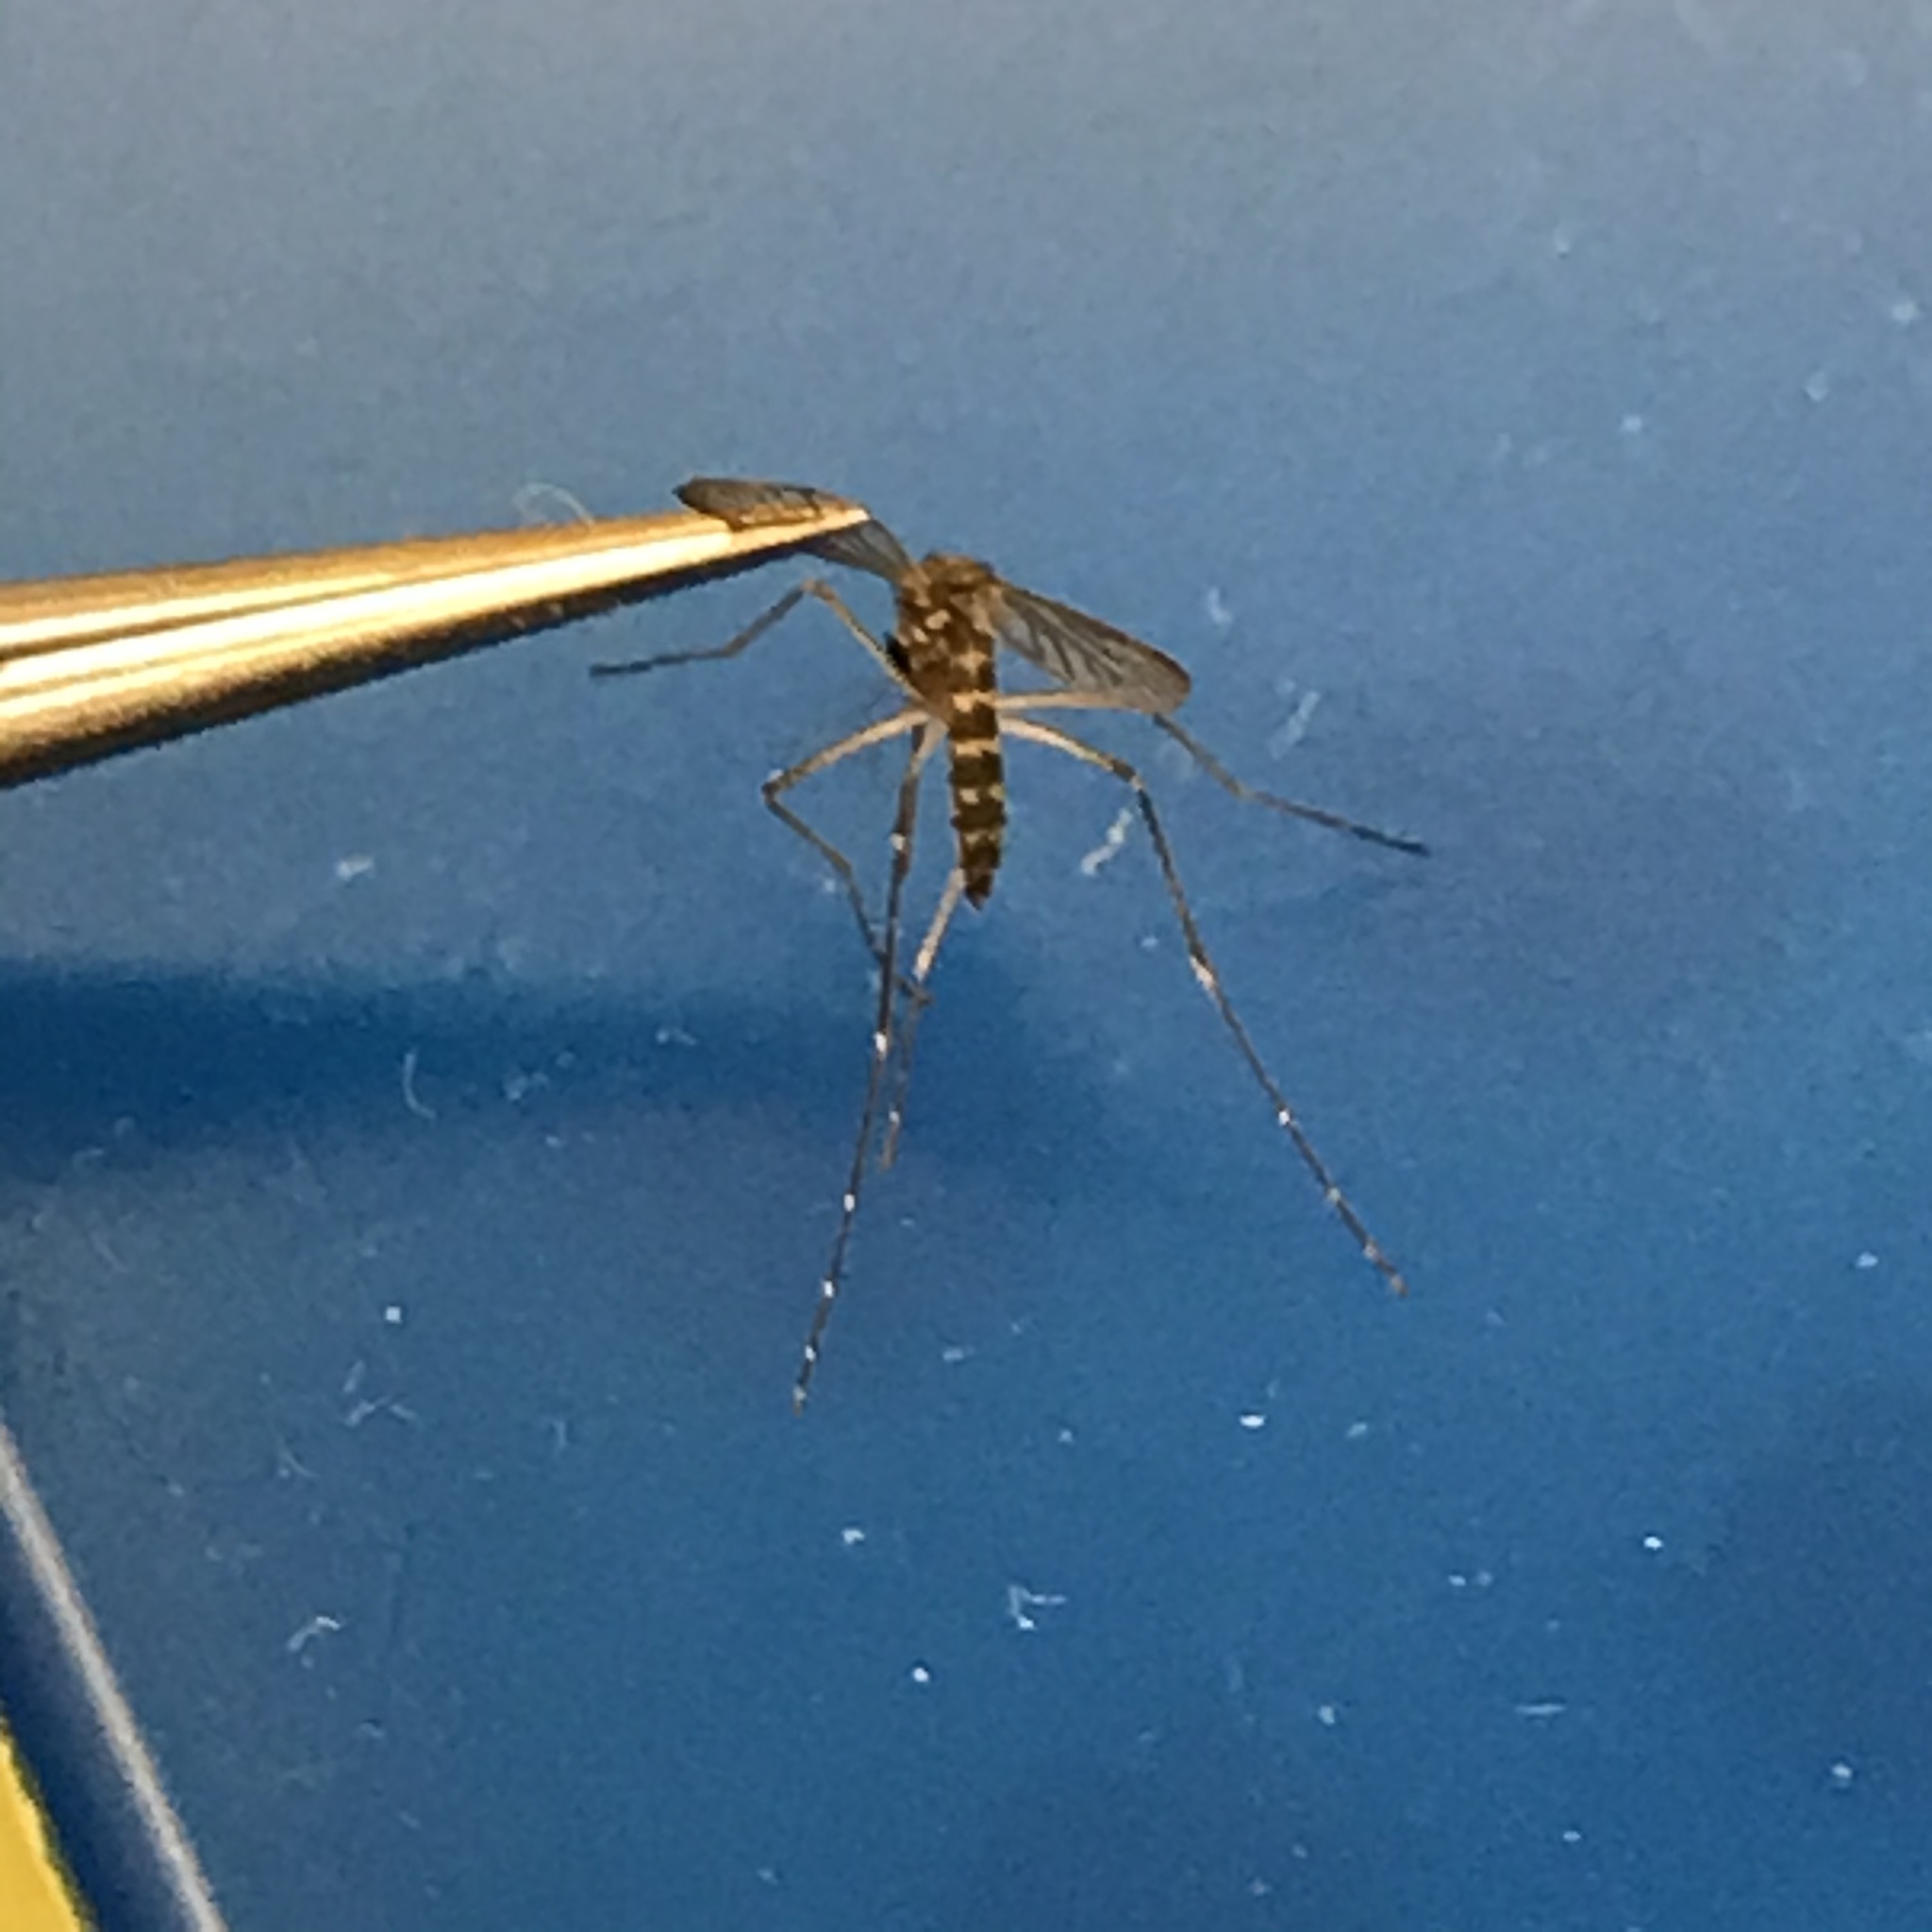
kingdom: Animalia
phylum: Arthropoda
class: Insecta
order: Diptera
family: Culicidae
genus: Aedes
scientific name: Aedes vexans
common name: Inland floodwater mosquito
